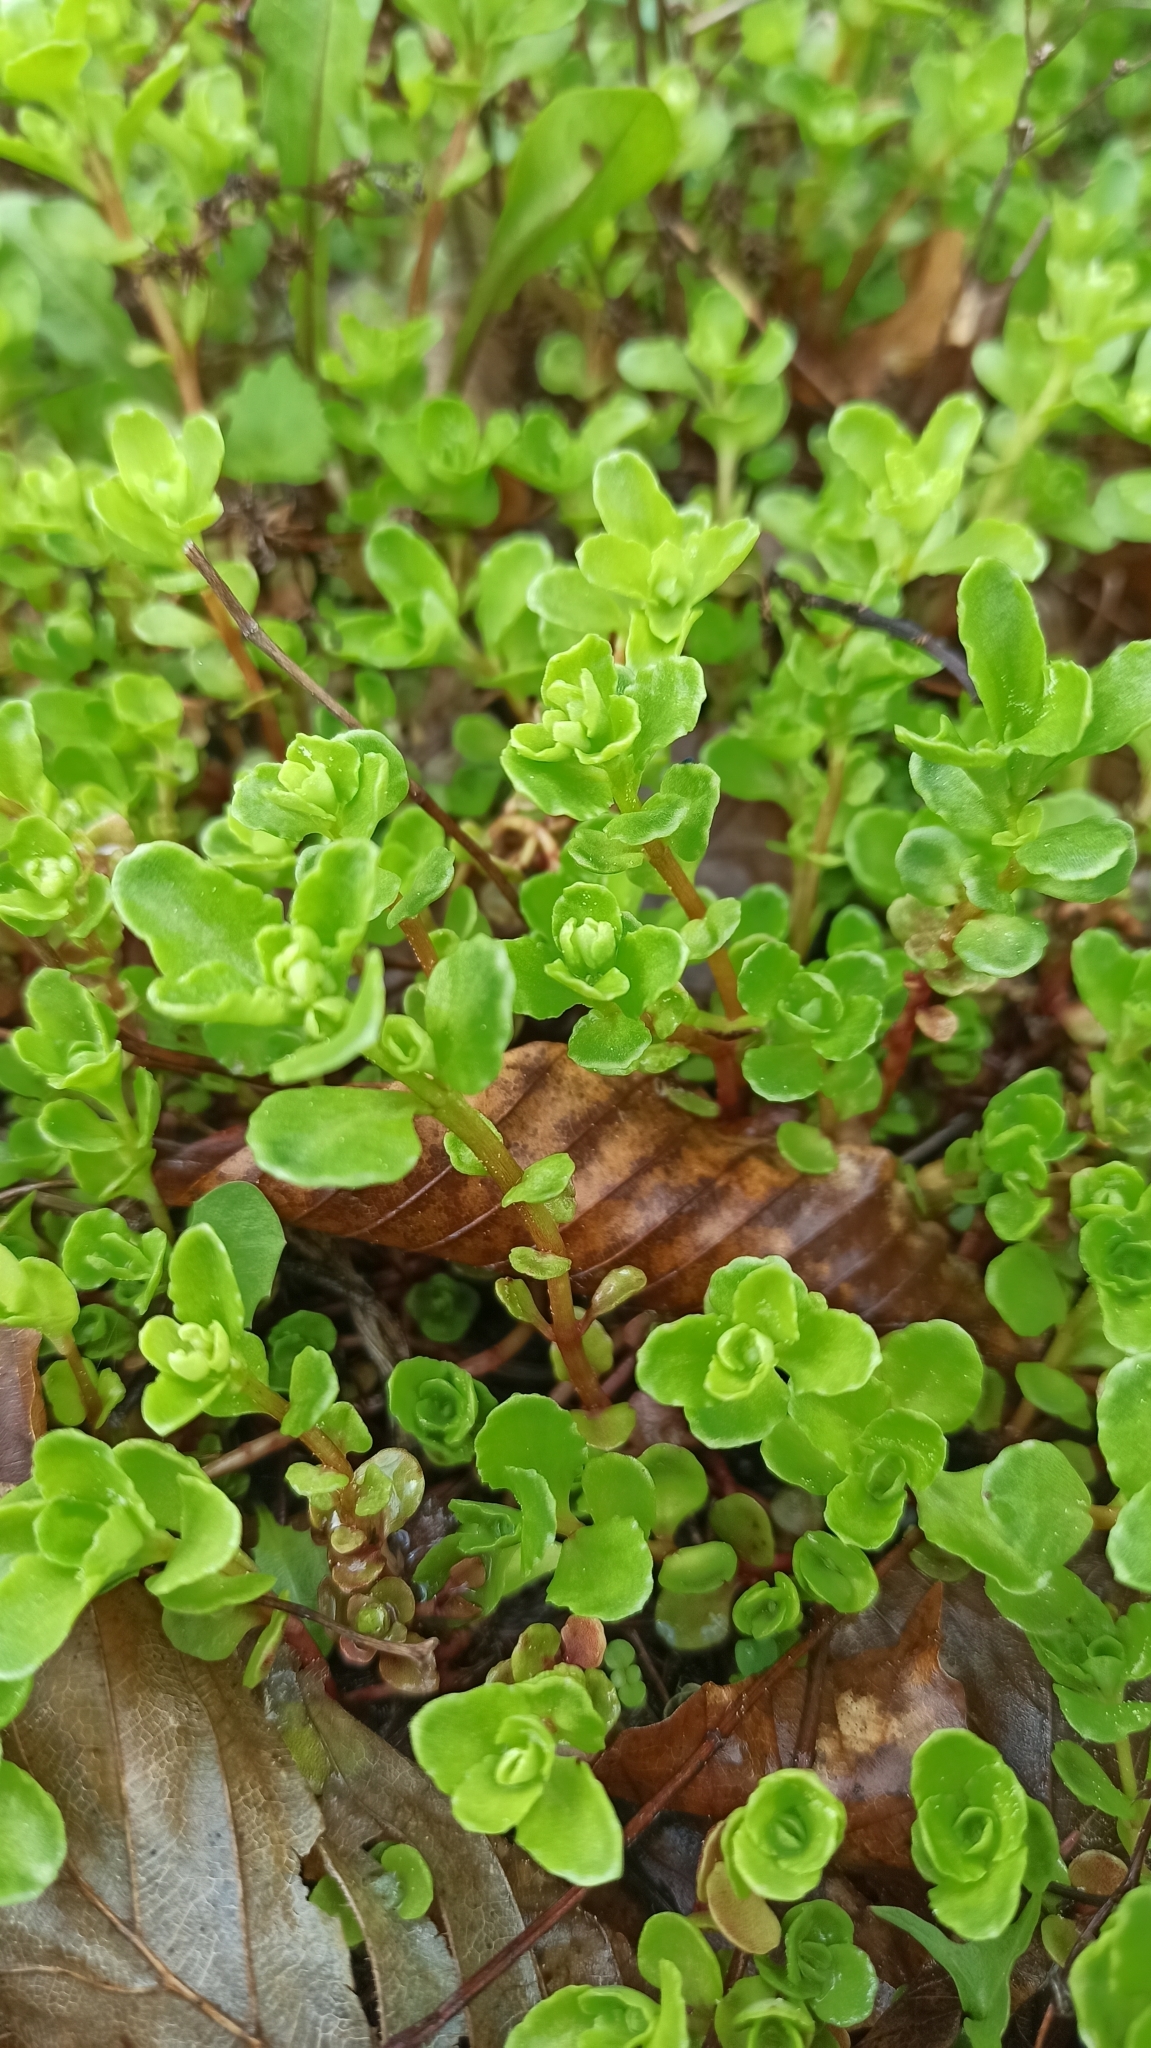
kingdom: Plantae
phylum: Tracheophyta
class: Magnoliopsida
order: Saxifragales
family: Crassulaceae
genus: Phedimus
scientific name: Phedimus stolonifer
